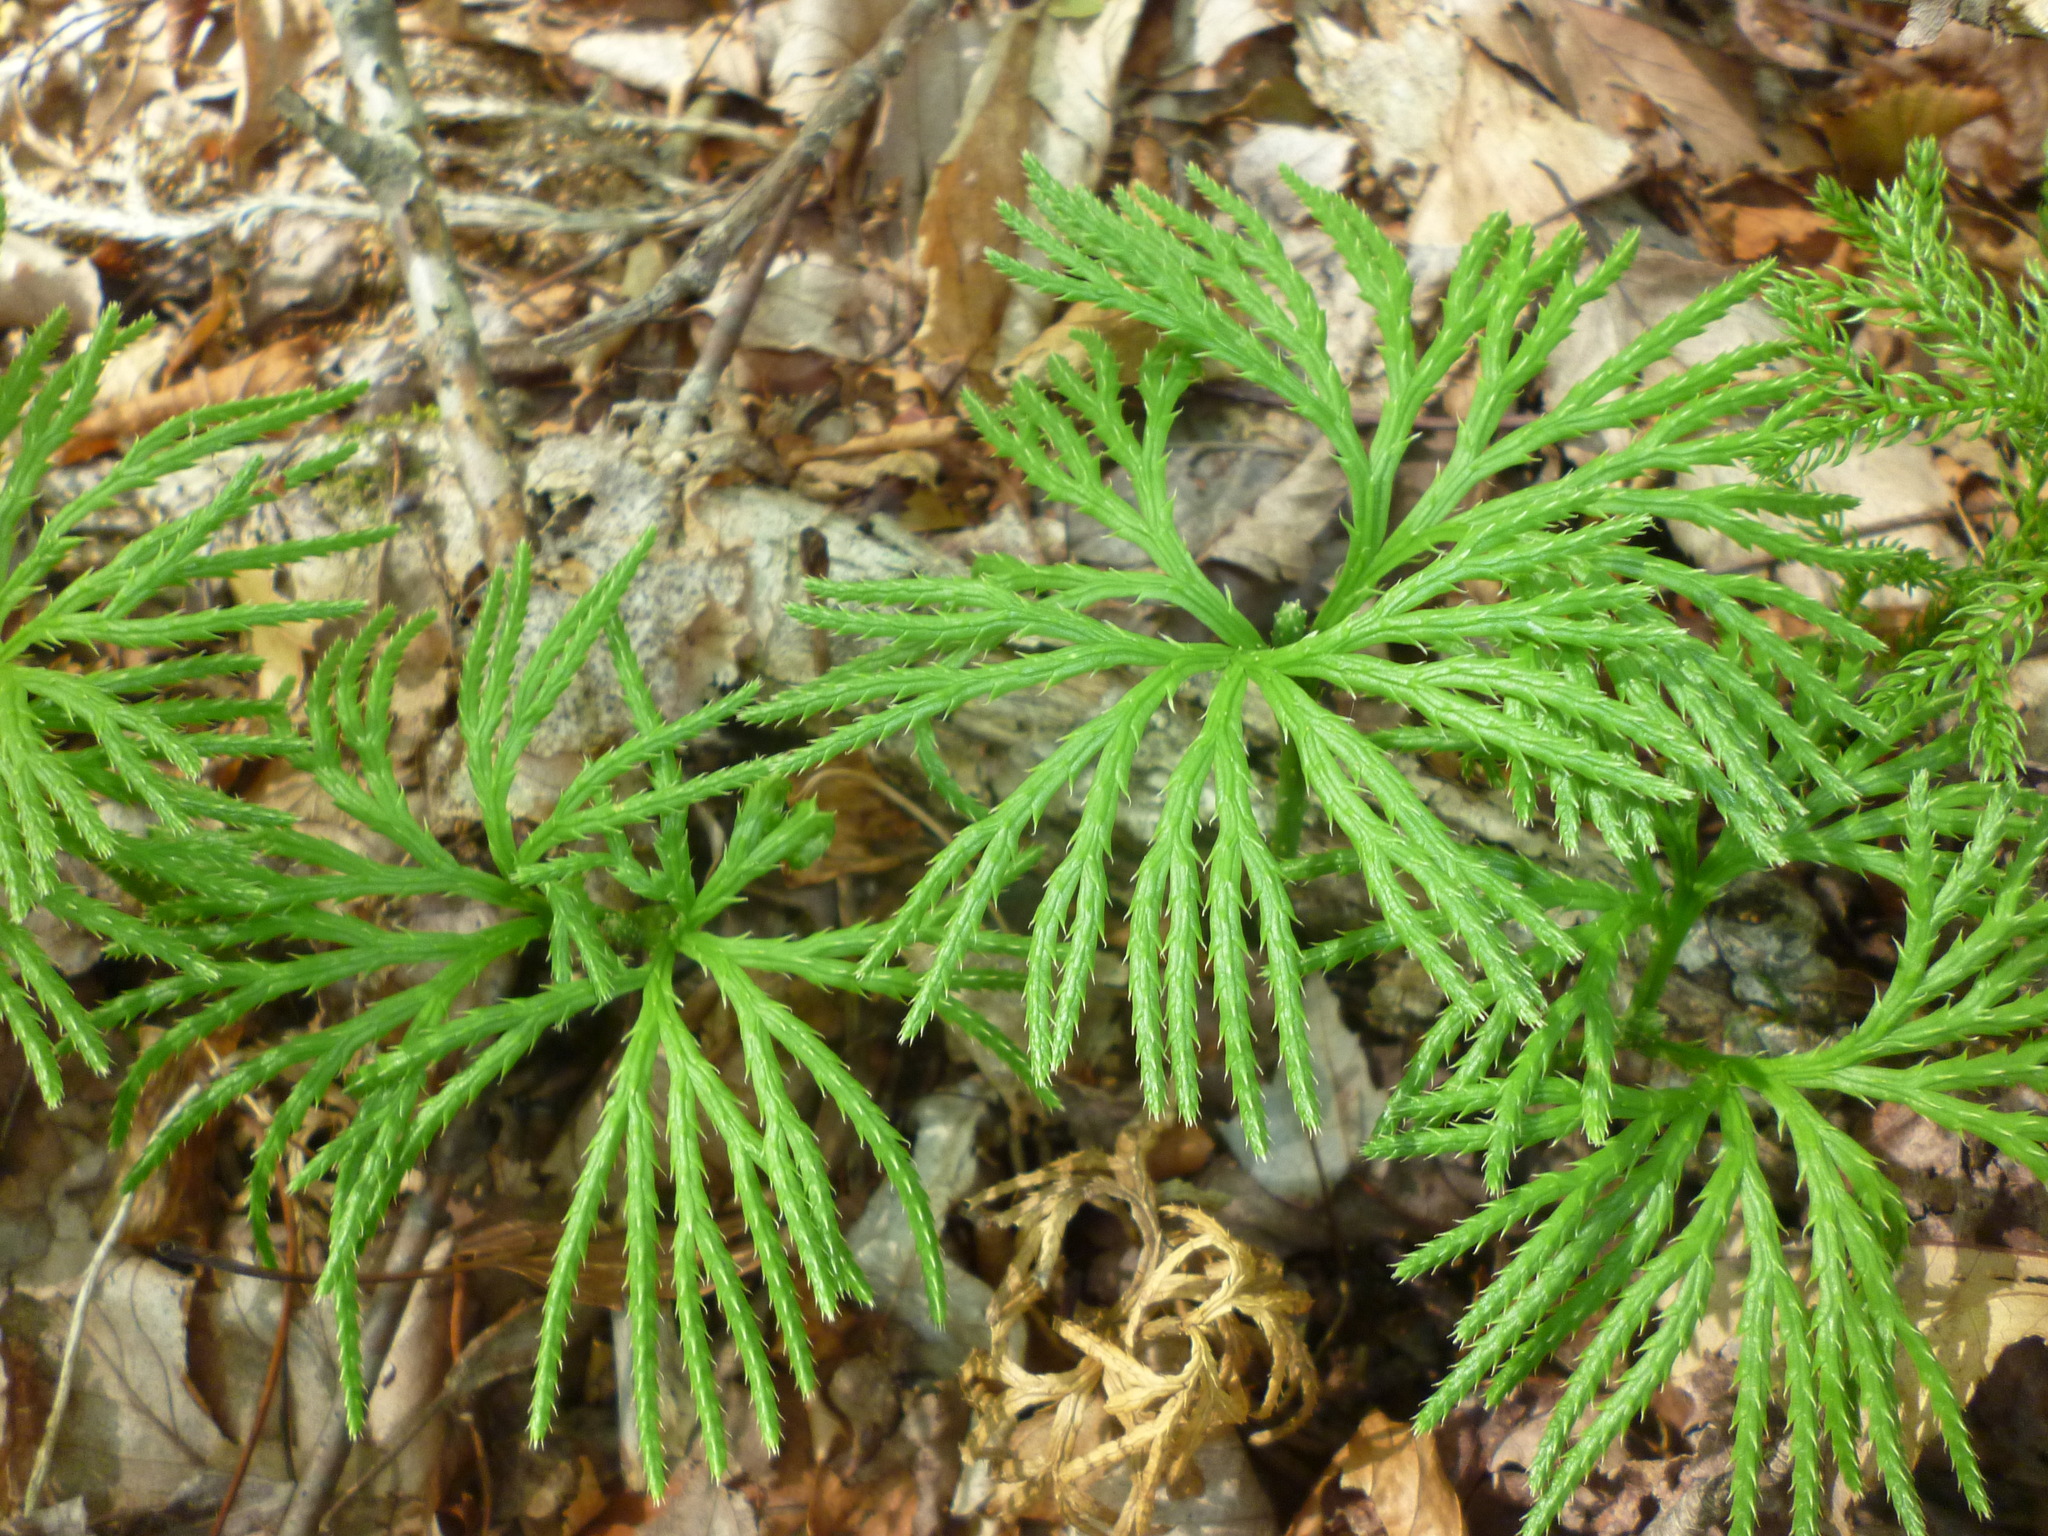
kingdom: Plantae
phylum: Tracheophyta
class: Lycopodiopsida
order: Lycopodiales
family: Lycopodiaceae
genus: Diphasiastrum
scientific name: Diphasiastrum digitatum
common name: Southern running-pine
